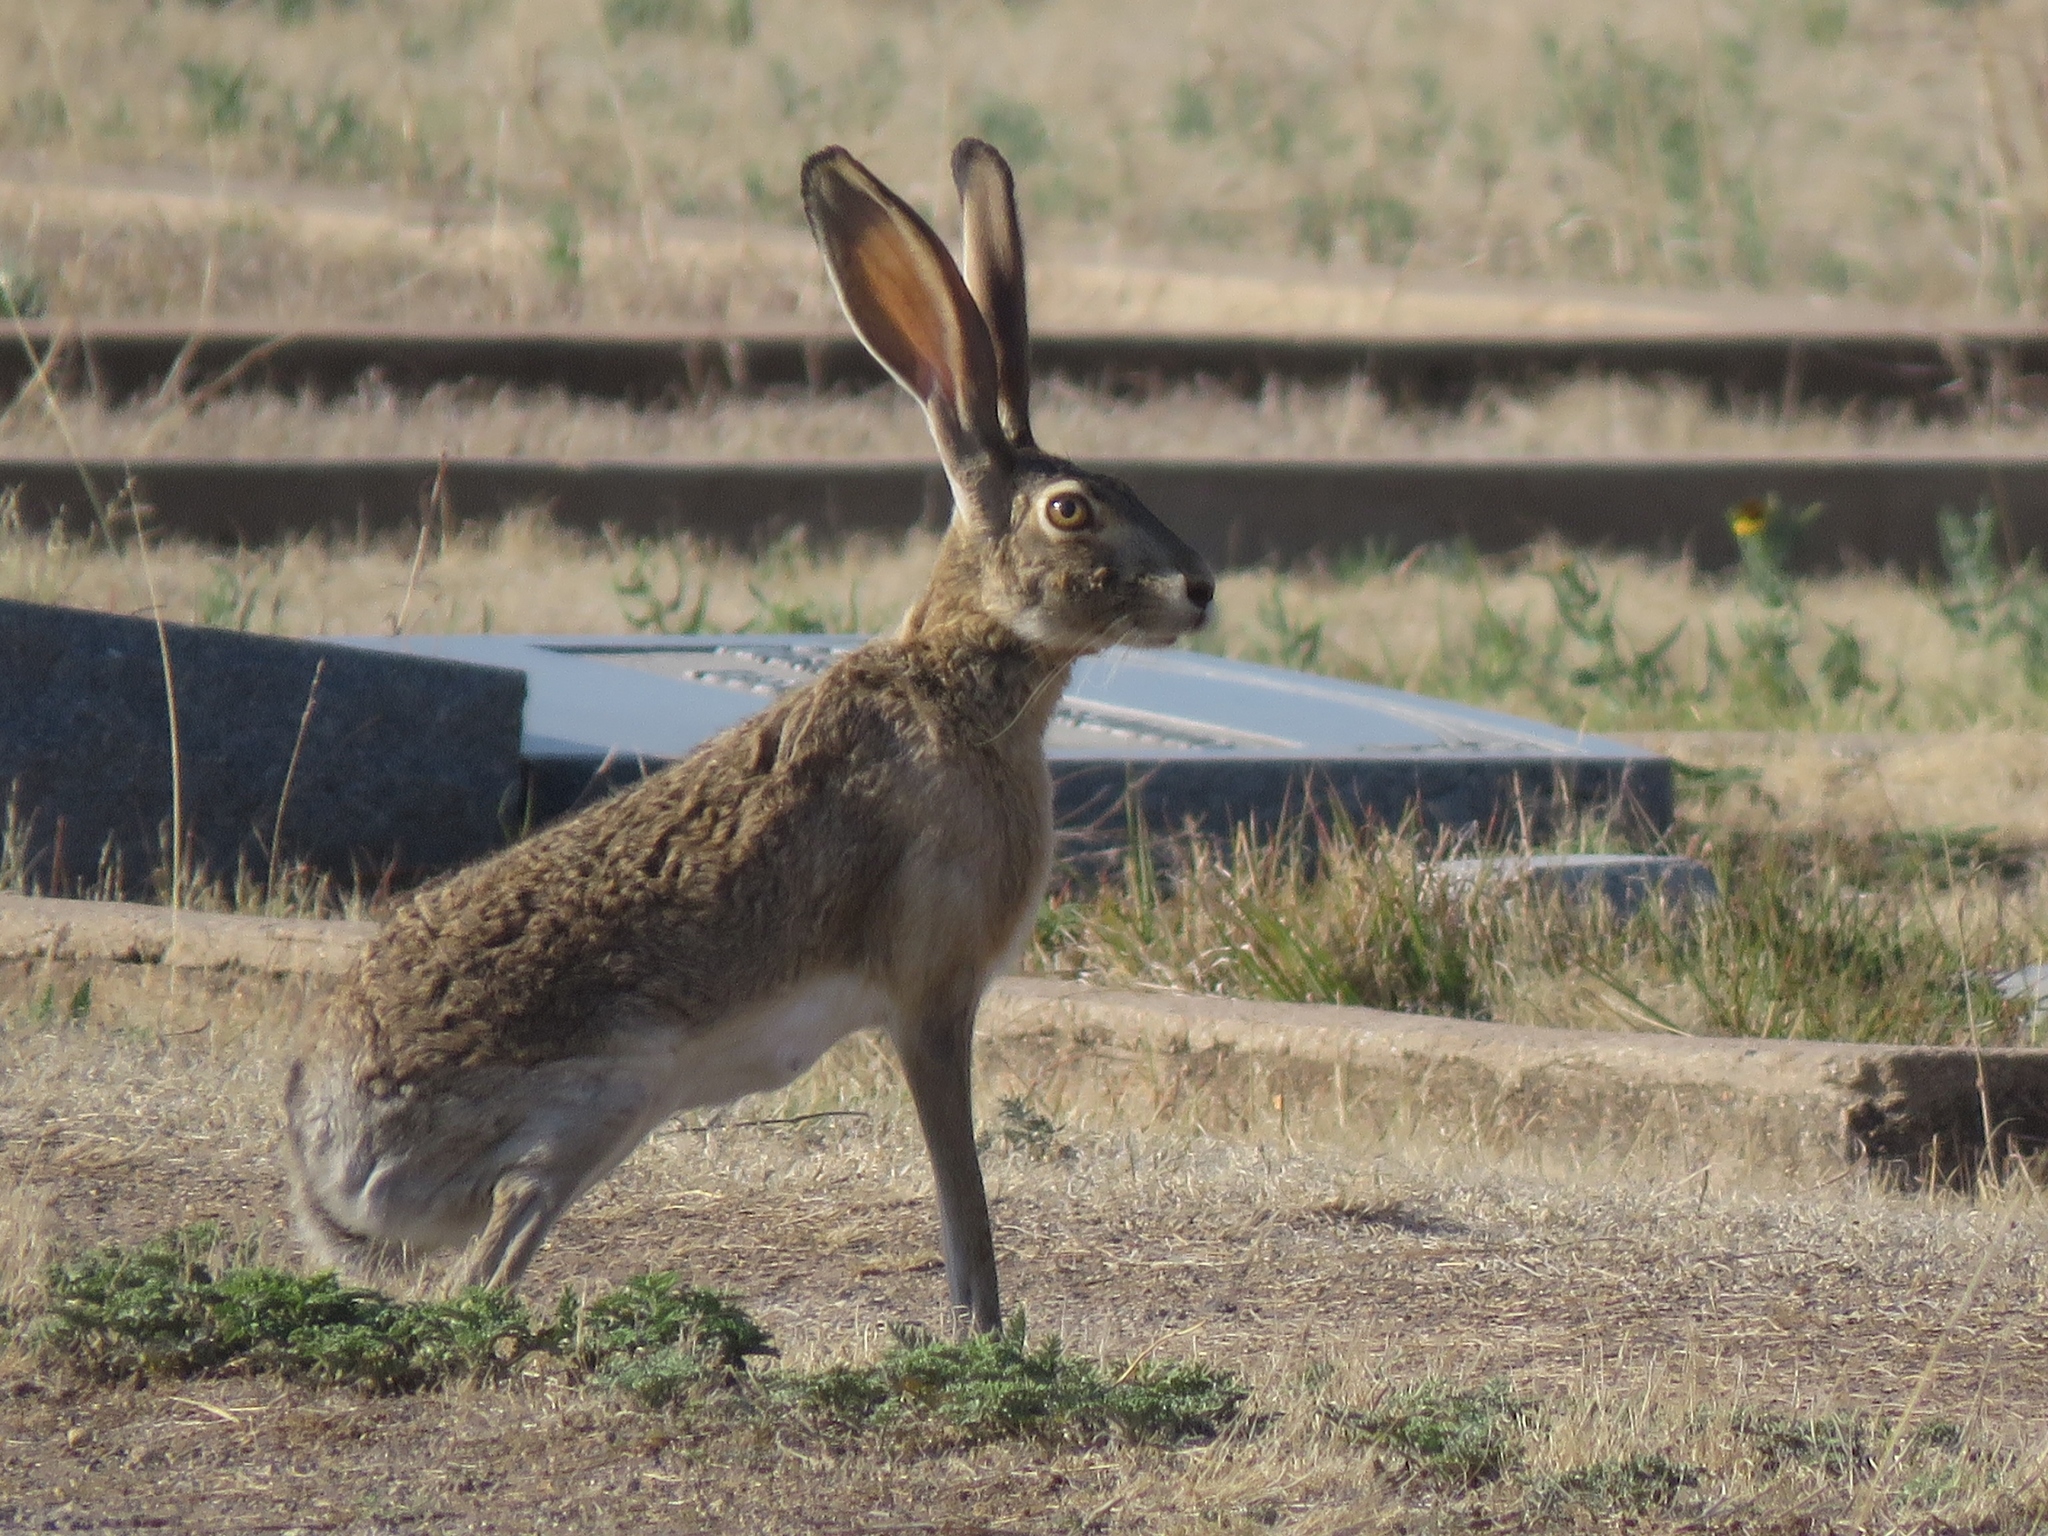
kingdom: Animalia
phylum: Chordata
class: Mammalia
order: Lagomorpha
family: Leporidae
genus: Lepus
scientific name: Lepus californicus
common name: Black-tailed jackrabbit
